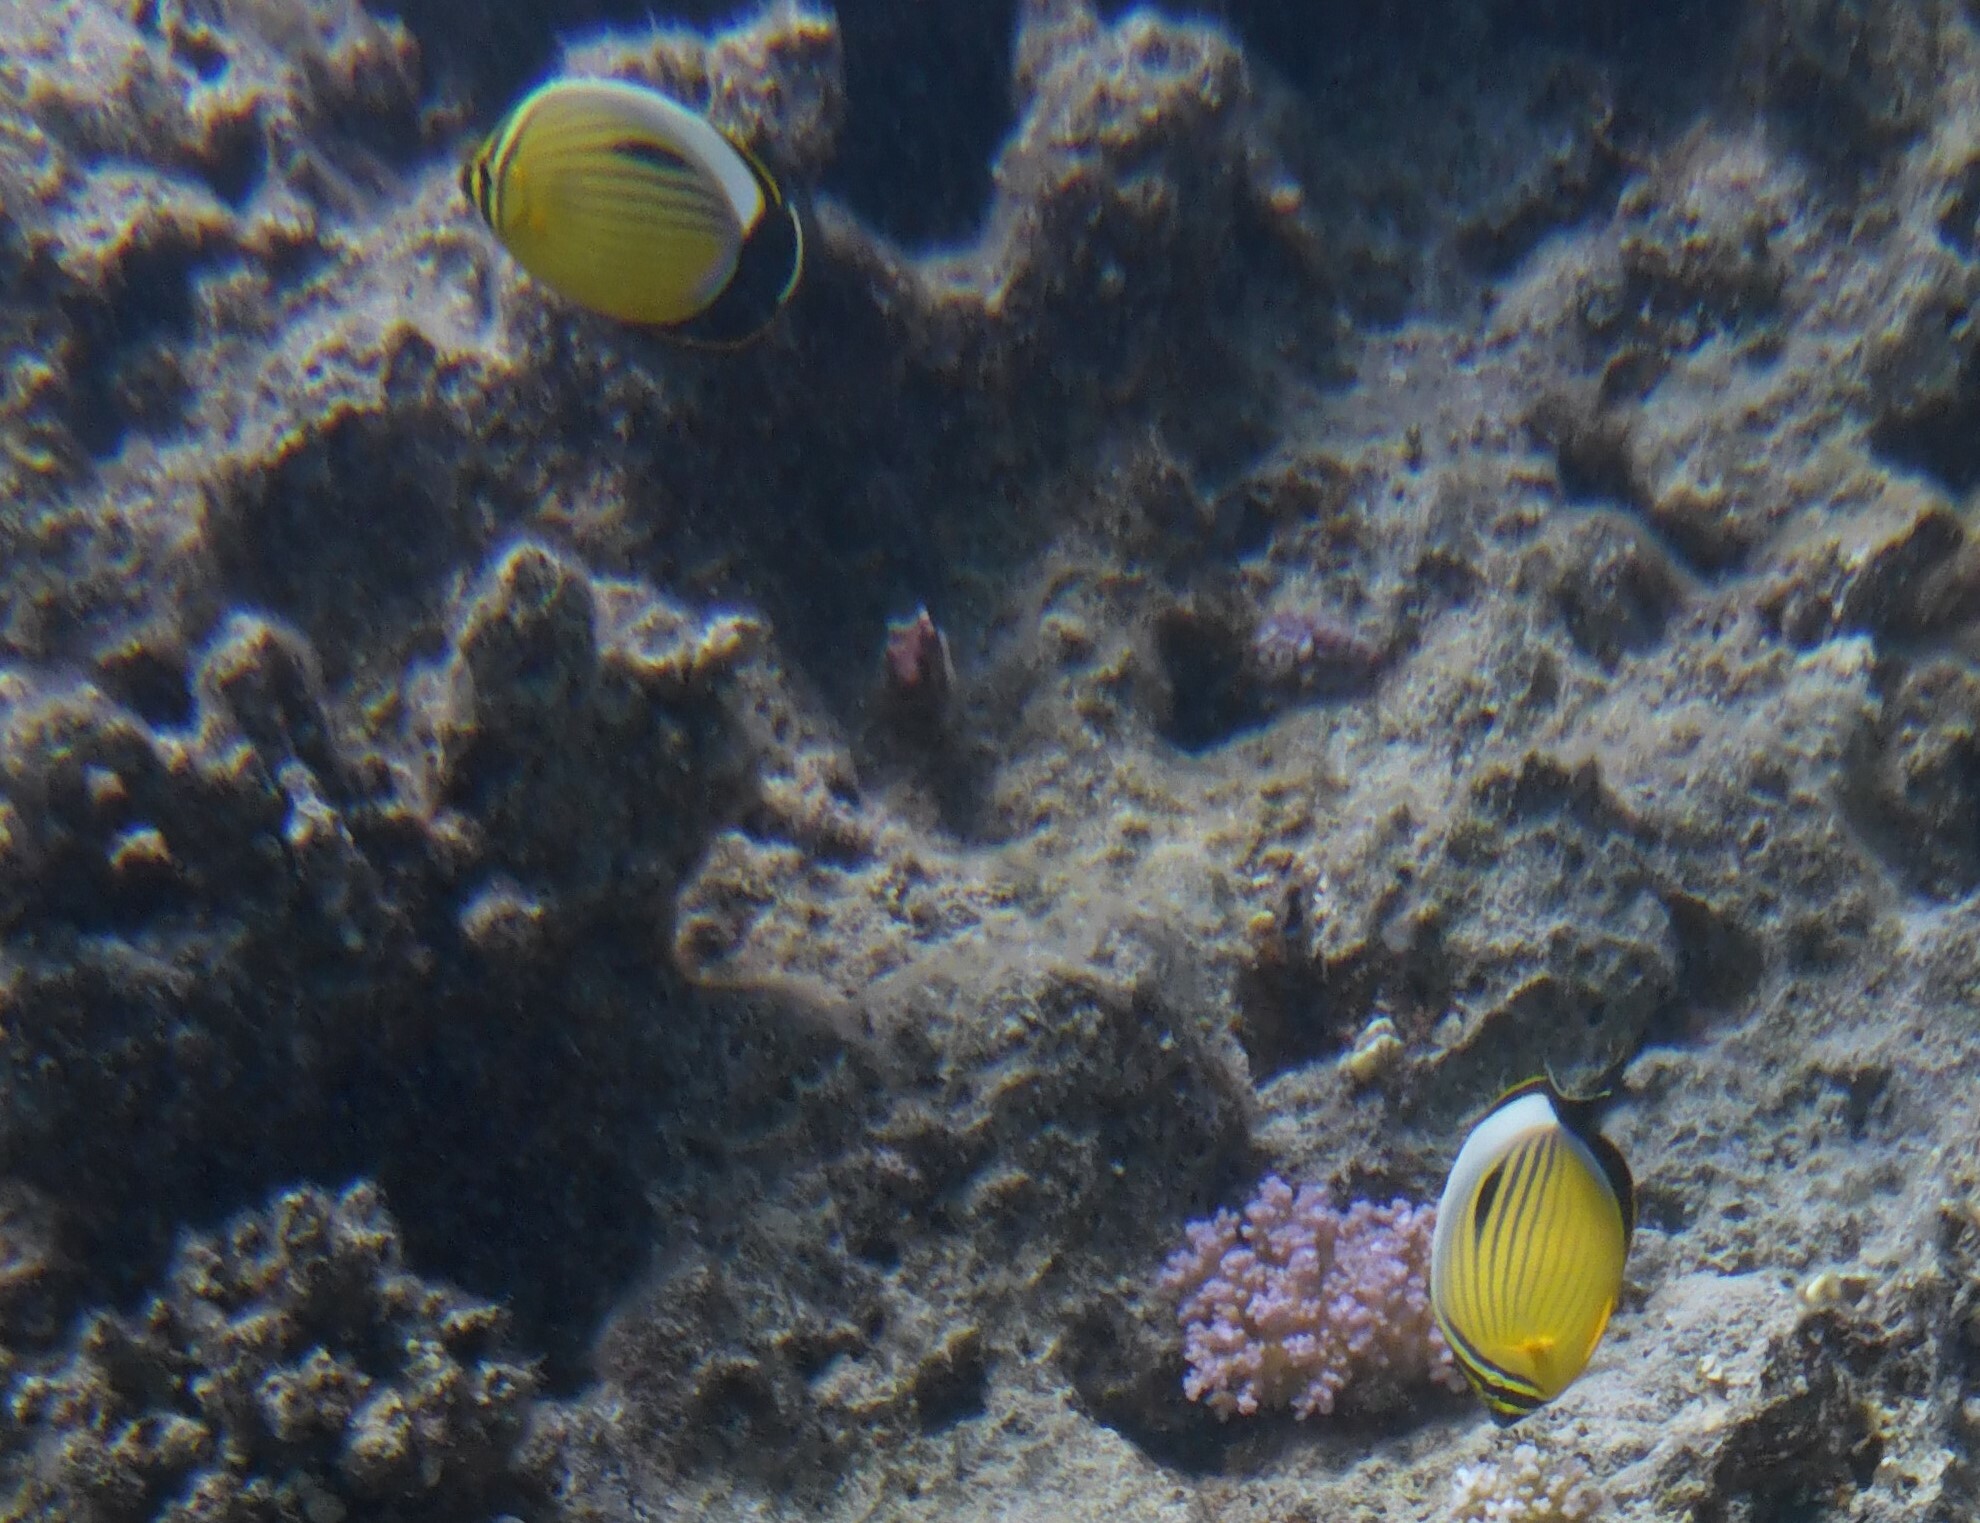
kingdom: Animalia
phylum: Chordata
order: Perciformes
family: Chaetodontidae
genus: Chaetodon
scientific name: Chaetodon austriacus
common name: Exquisite butterflyfish
